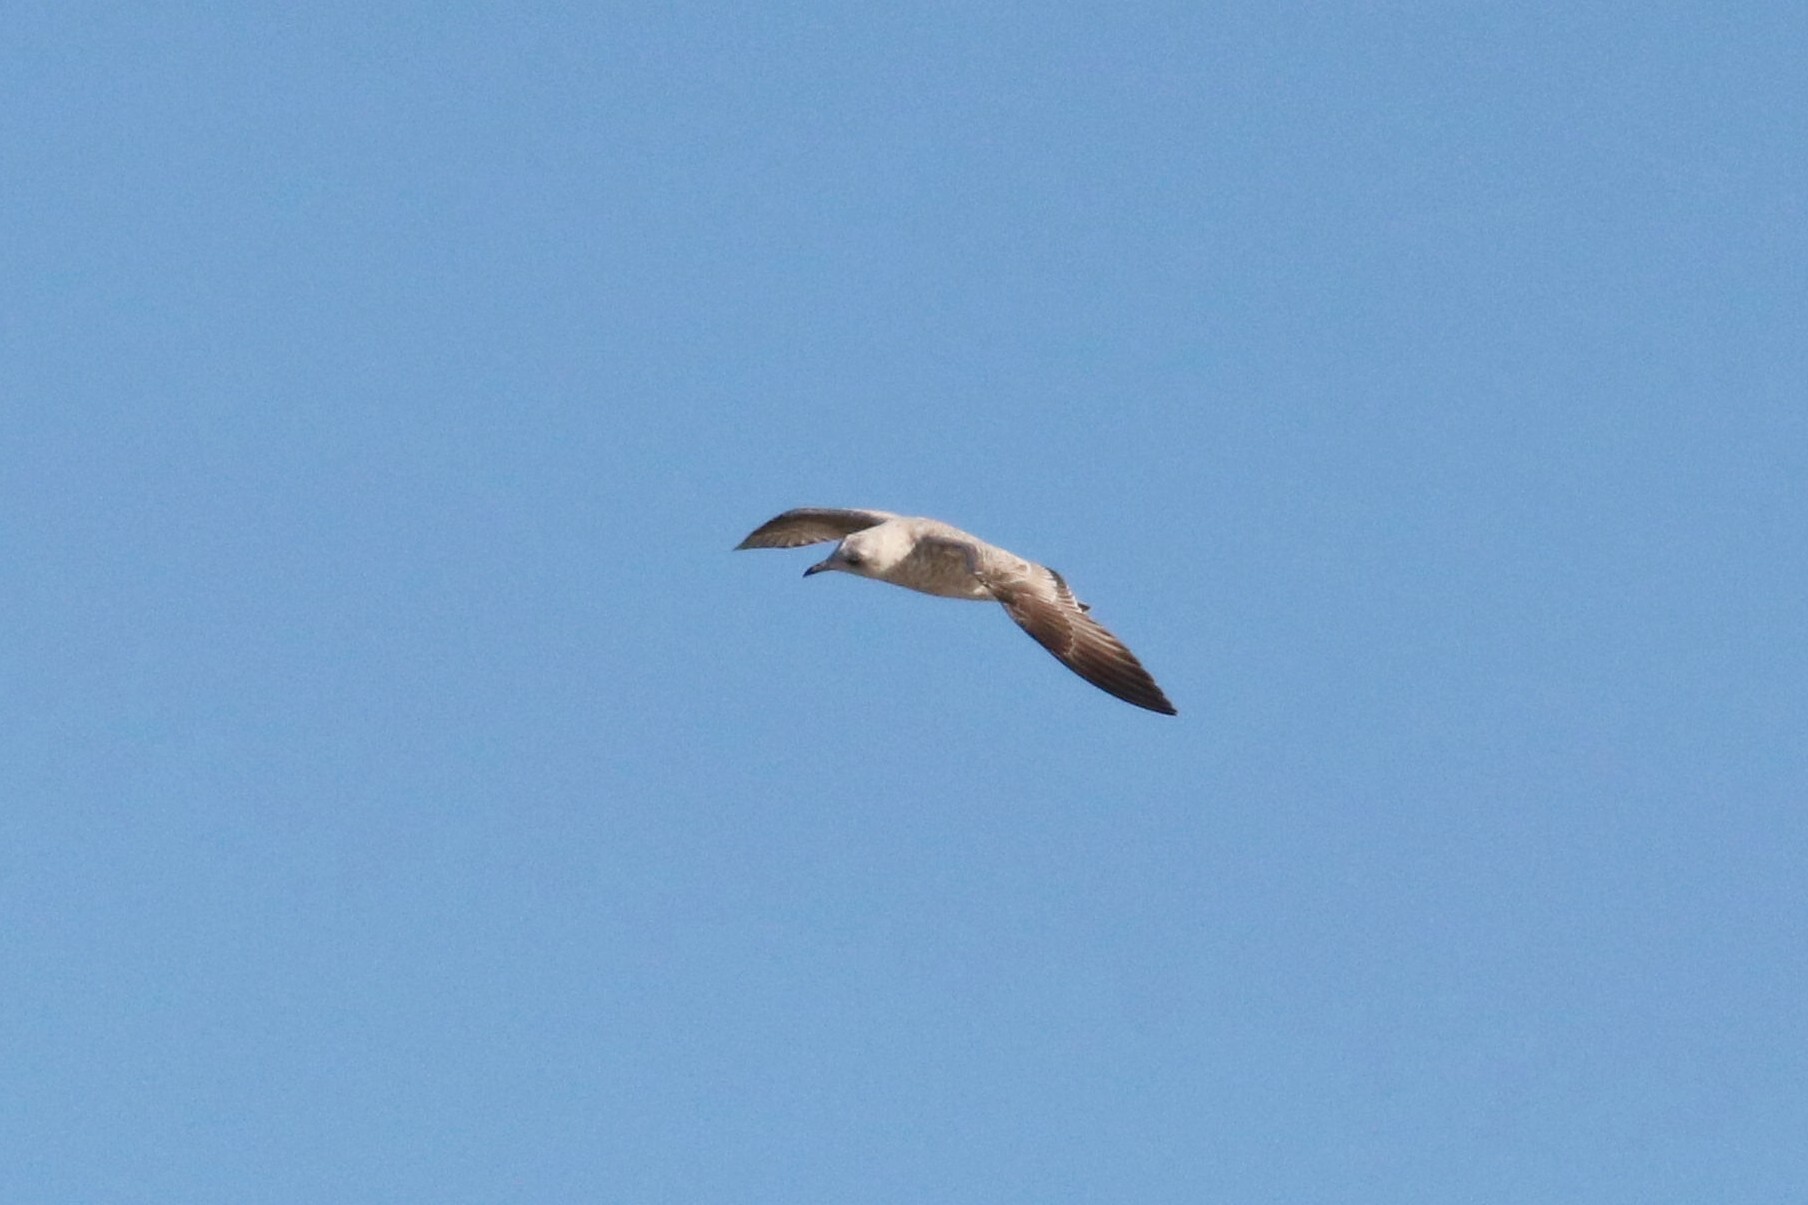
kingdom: Animalia
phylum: Chordata
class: Aves
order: Charadriiformes
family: Laridae
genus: Larus
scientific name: Larus canus
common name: Mew gull
